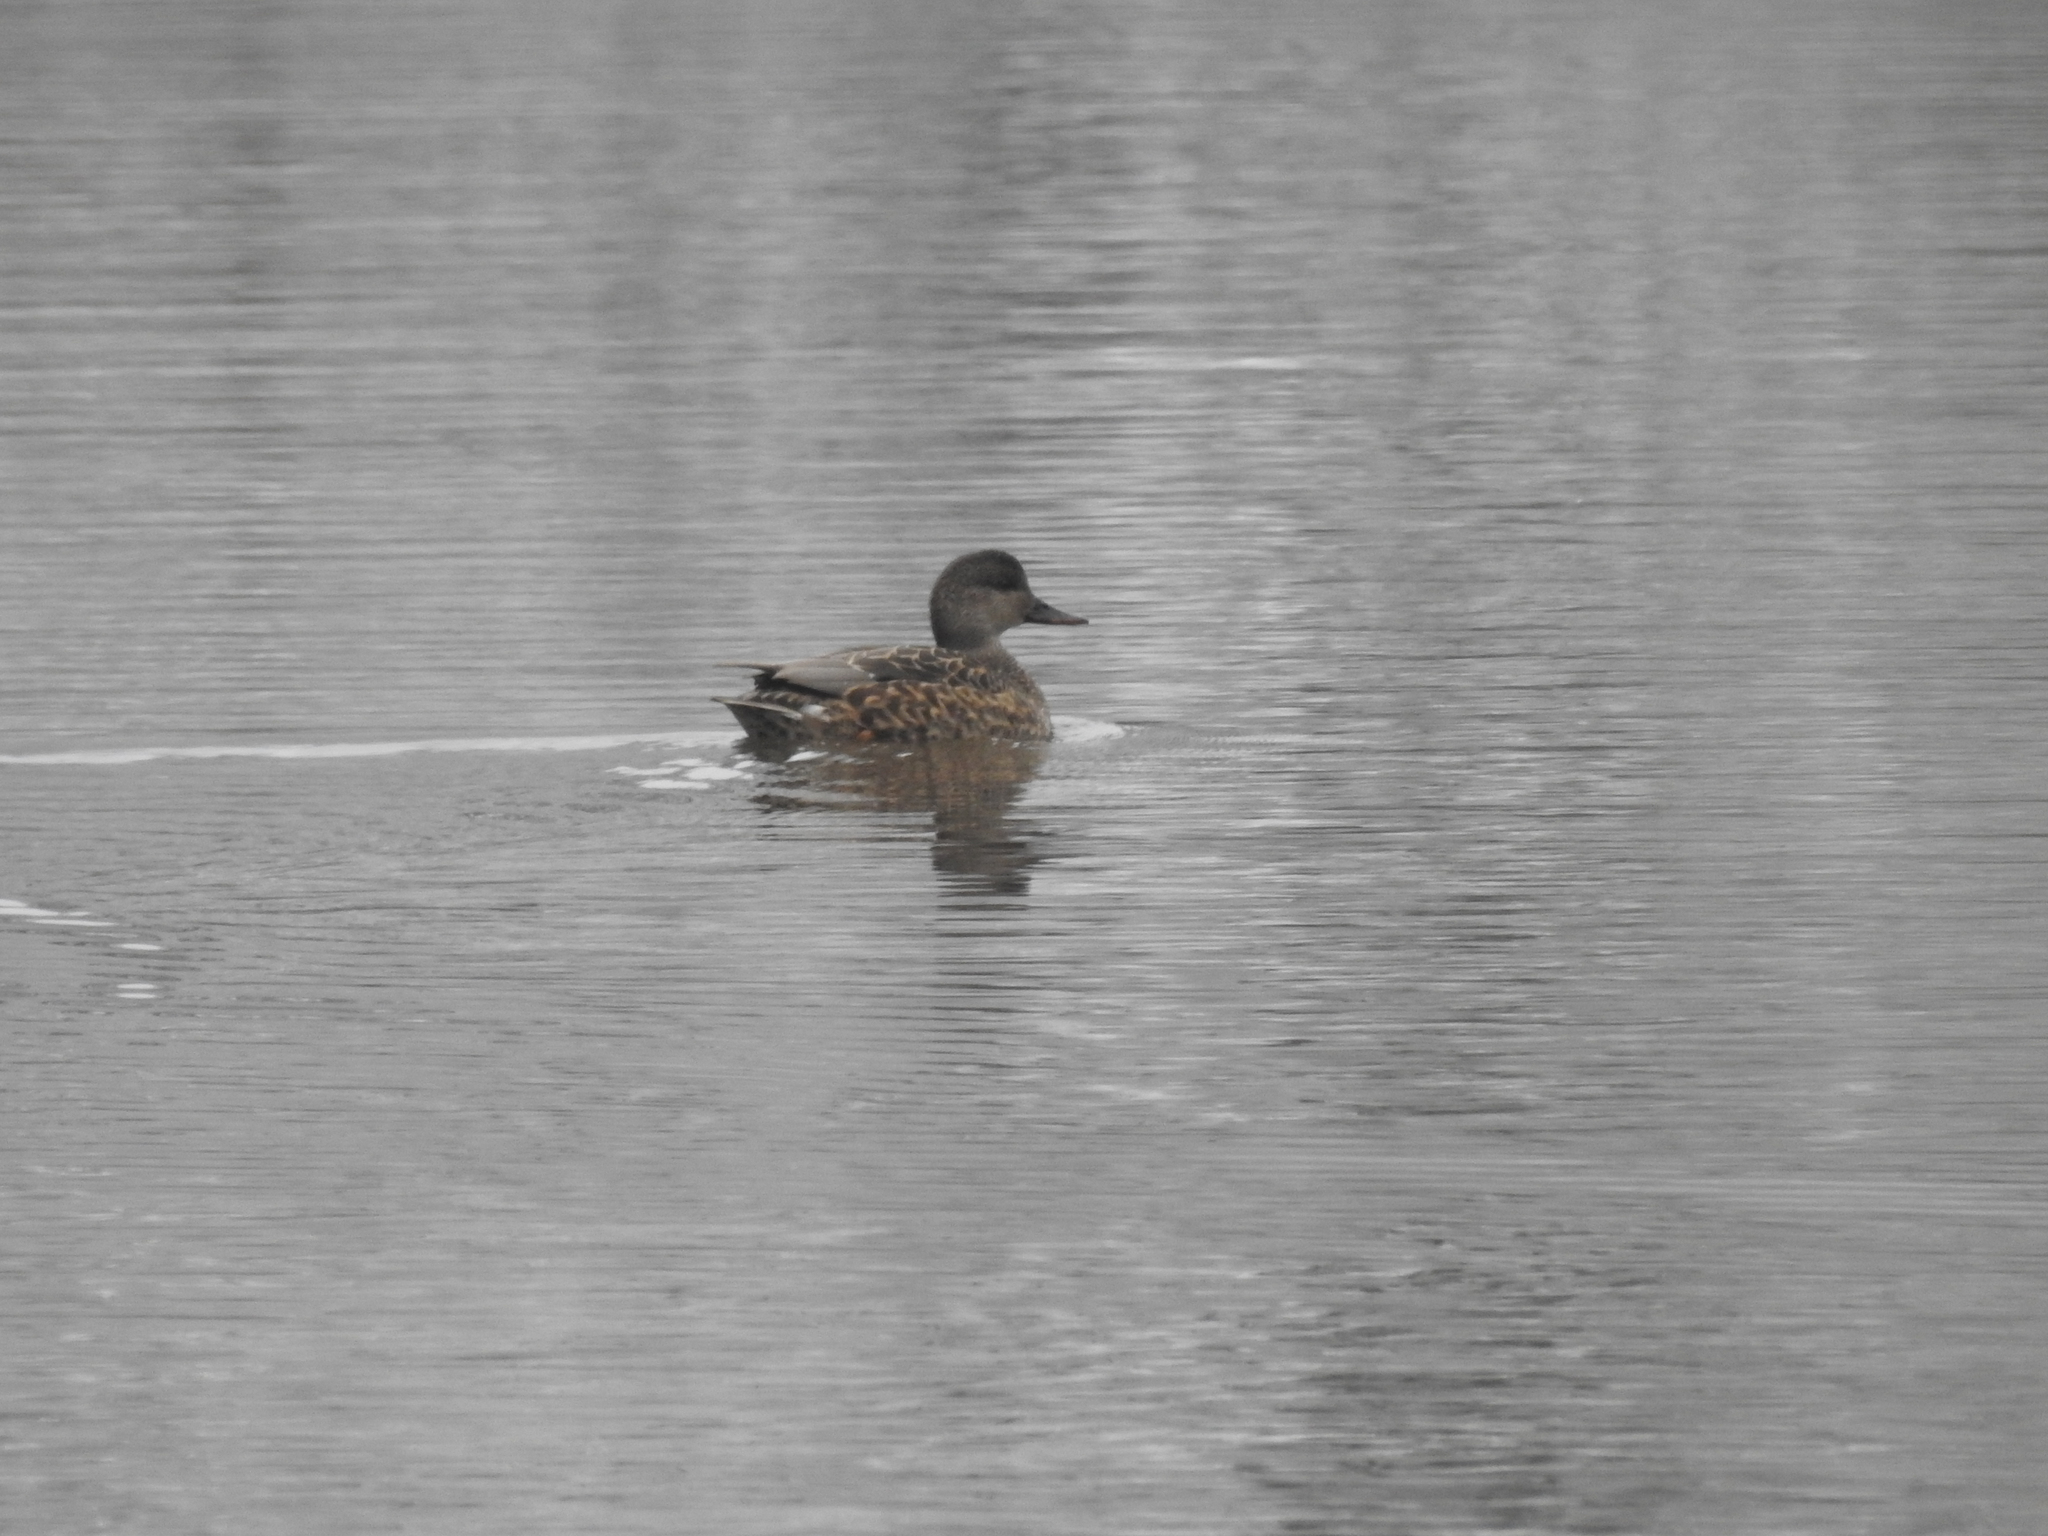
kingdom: Animalia
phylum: Chordata
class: Aves
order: Anseriformes
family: Anatidae
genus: Mareca
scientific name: Mareca strepera
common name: Gadwall
